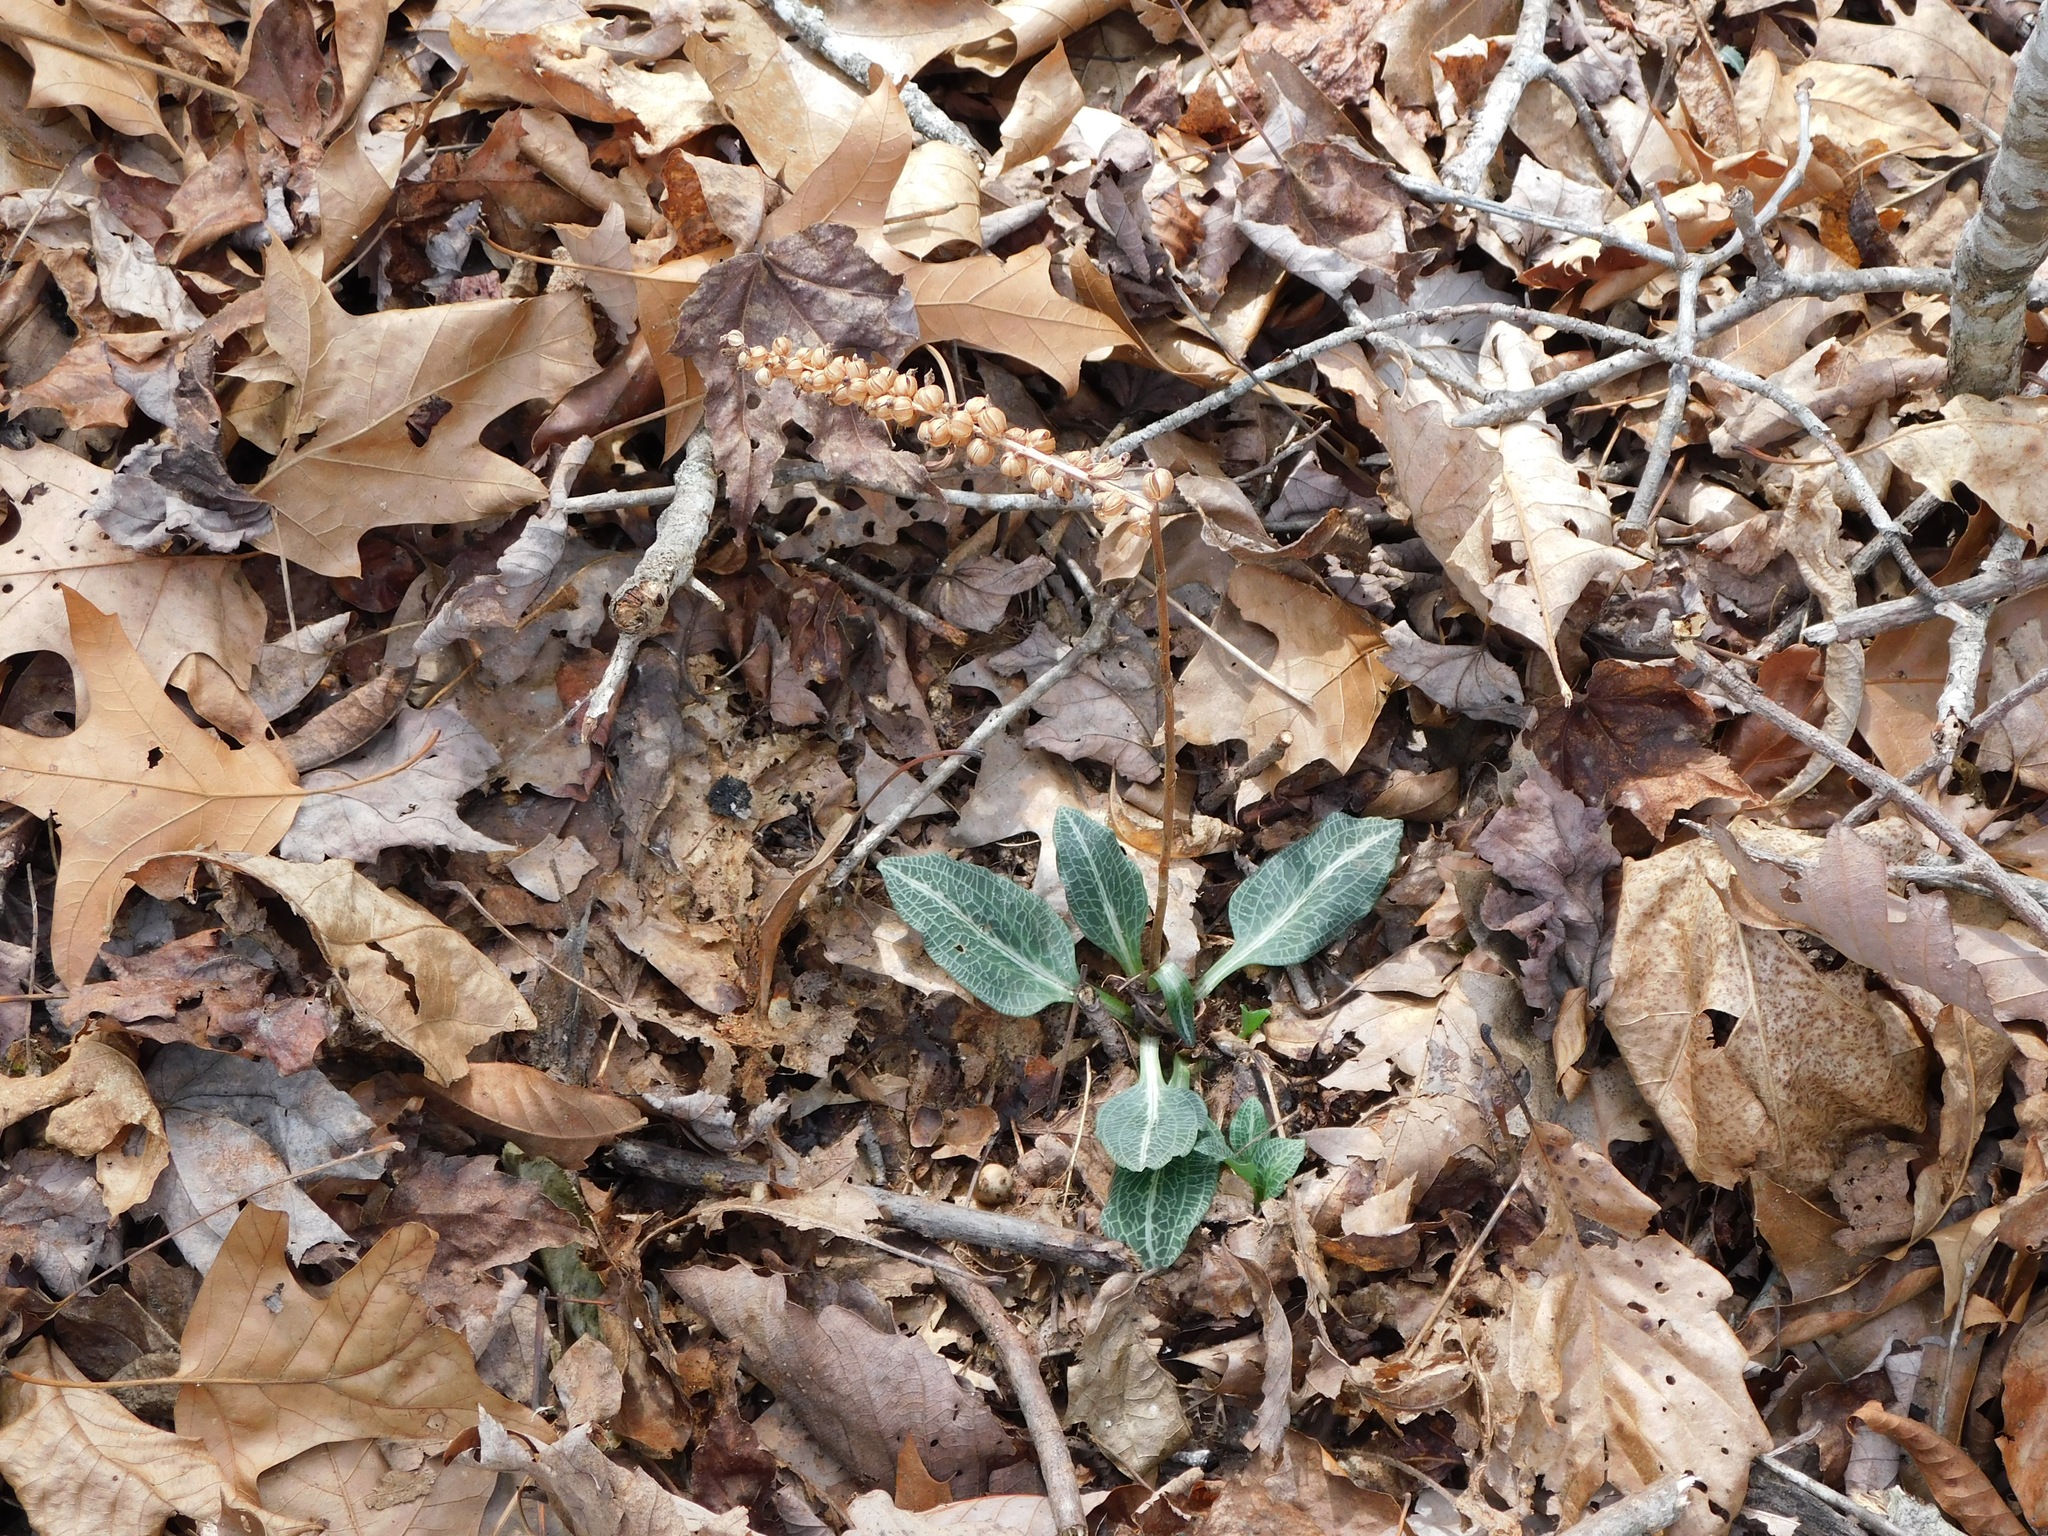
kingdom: Plantae
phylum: Tracheophyta
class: Liliopsida
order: Asparagales
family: Orchidaceae
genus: Goodyera
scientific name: Goodyera pubescens
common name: Downy rattlesnake-plantain
